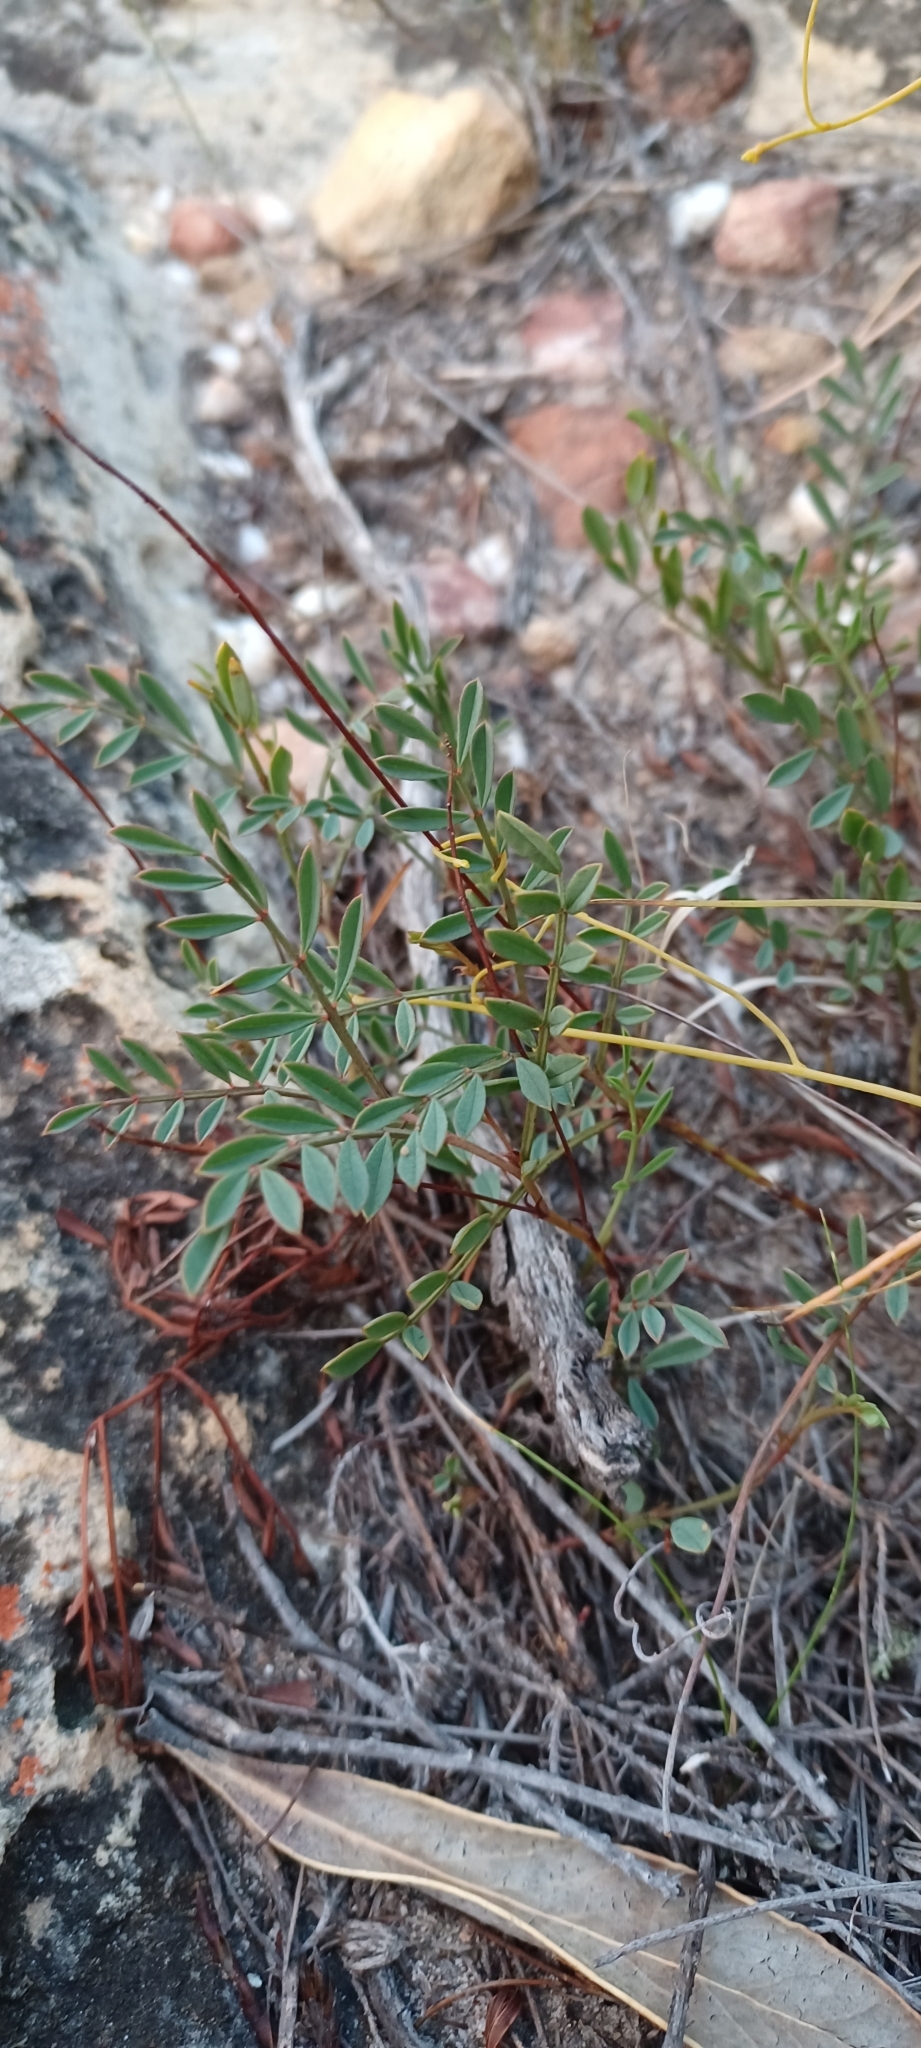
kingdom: Plantae
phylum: Tracheophyta
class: Magnoliopsida
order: Fabales
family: Fabaceae
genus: Indigofera
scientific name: Indigofera capillaris
